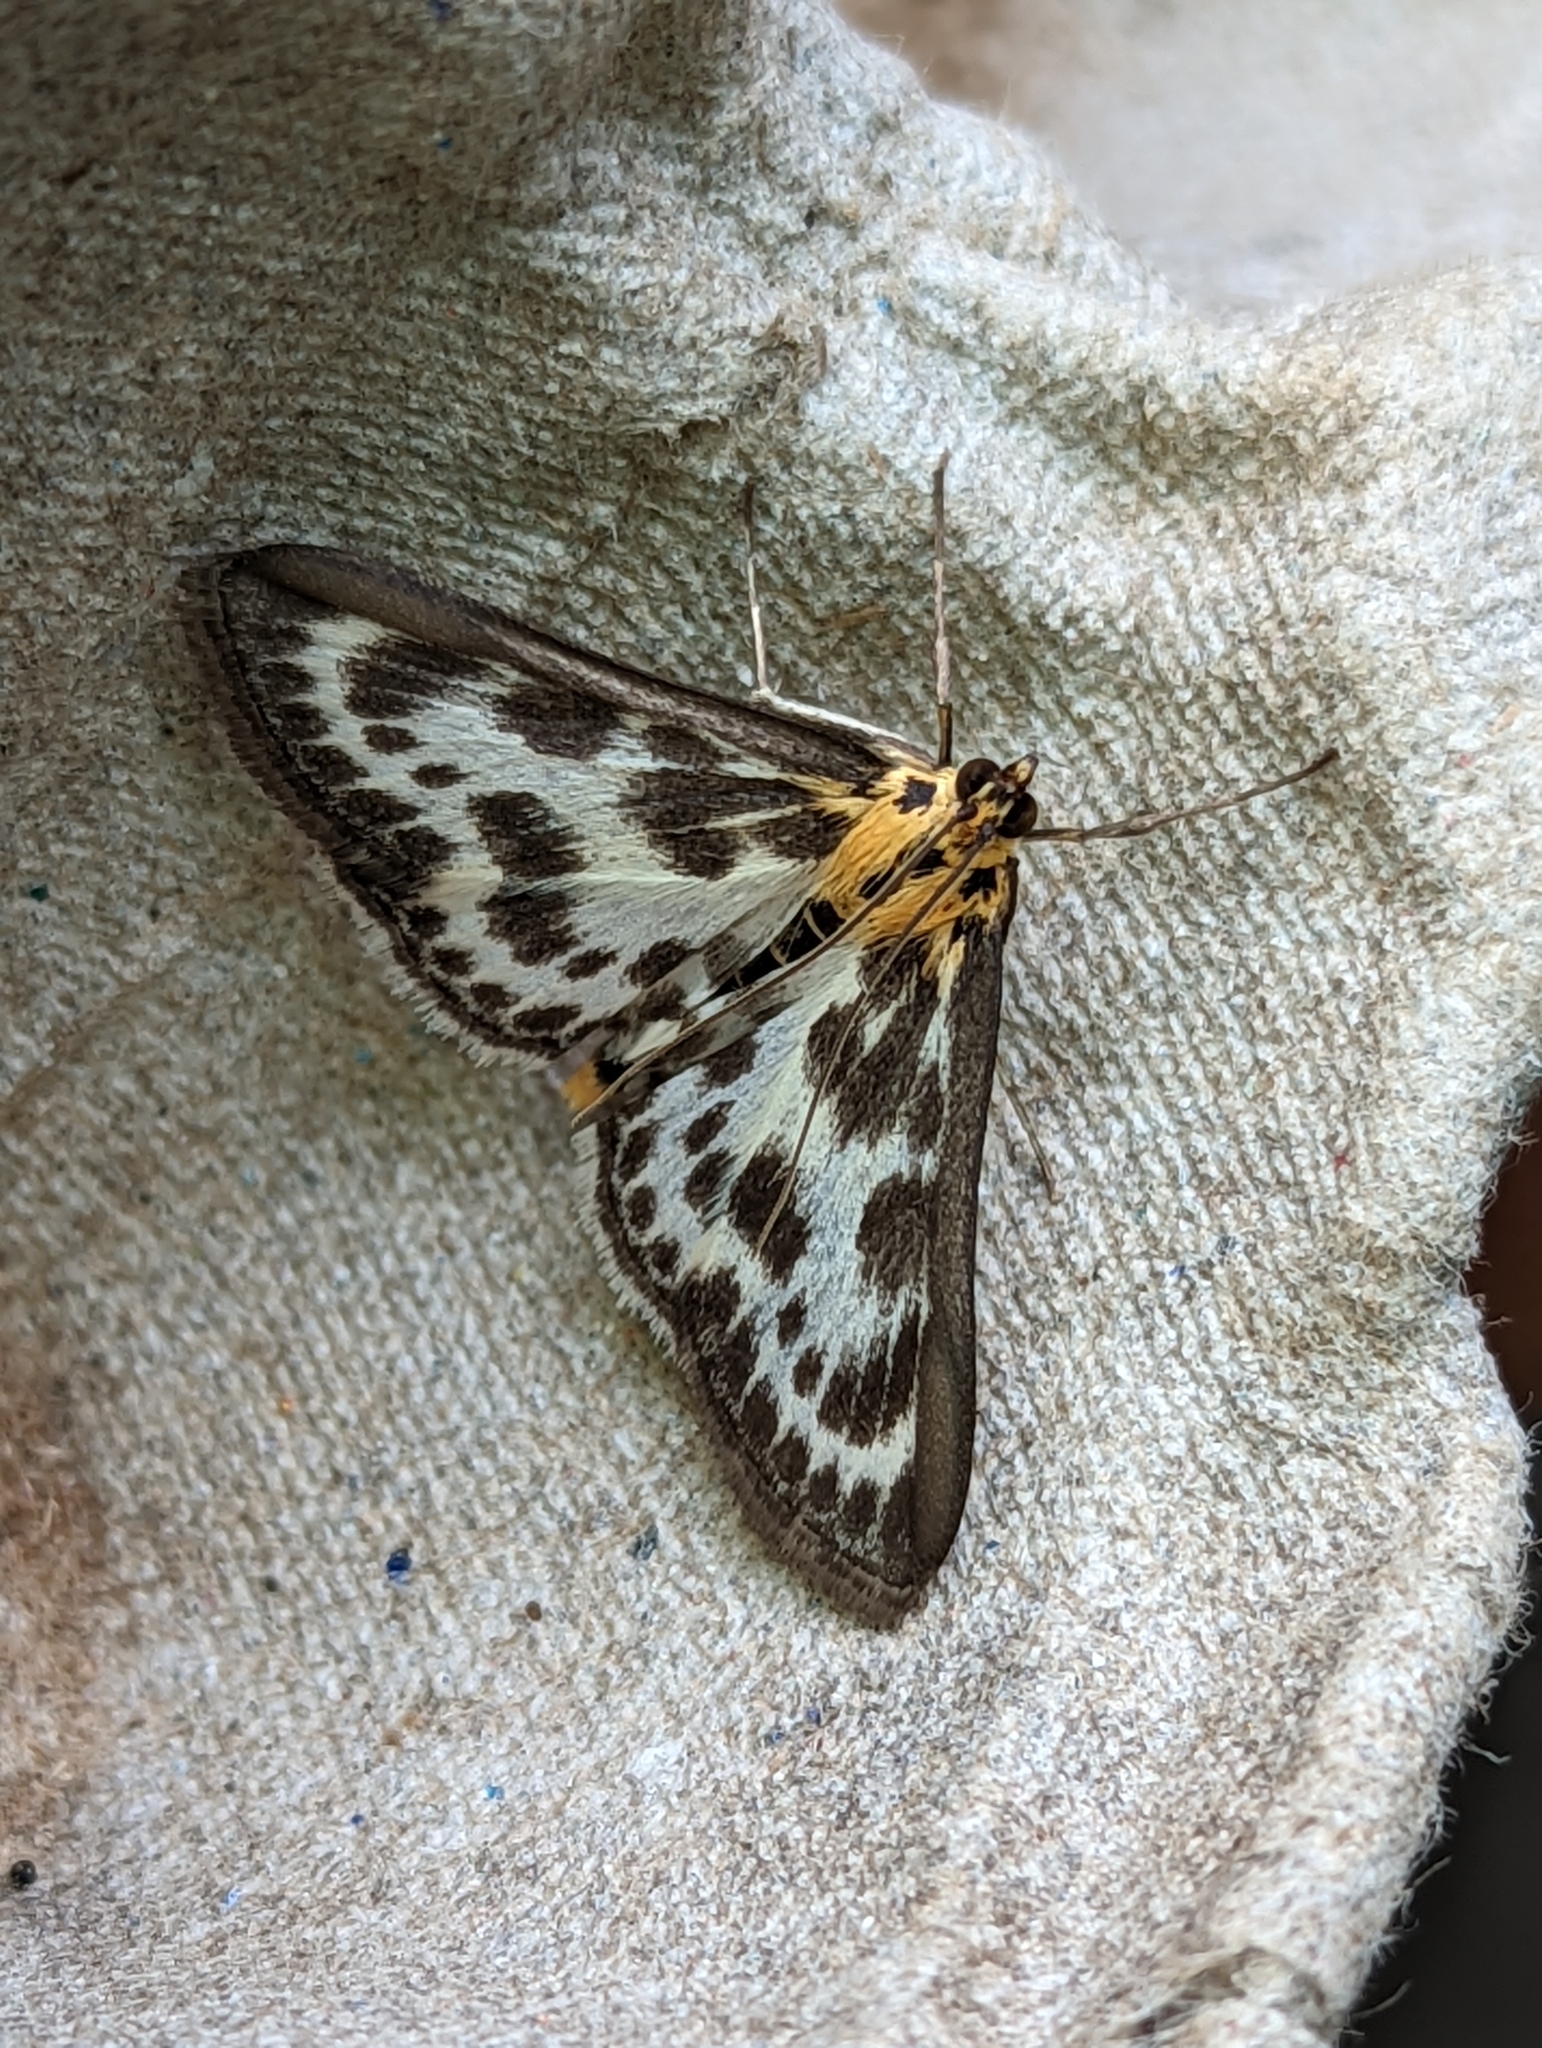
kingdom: Animalia
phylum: Arthropoda
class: Insecta
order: Lepidoptera
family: Crambidae
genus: Anania
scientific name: Anania hortulata
